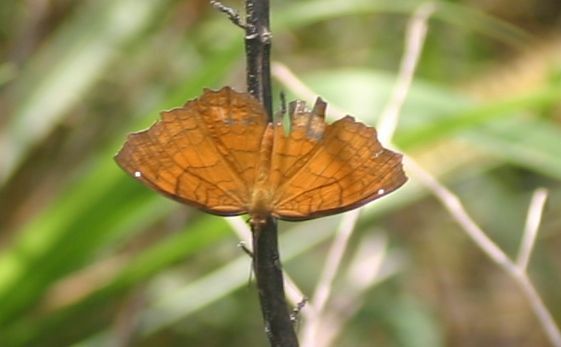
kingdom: Animalia
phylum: Arthropoda
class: Insecta
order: Lepidoptera
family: Nymphalidae
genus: Ariadne
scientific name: Ariadne merione
